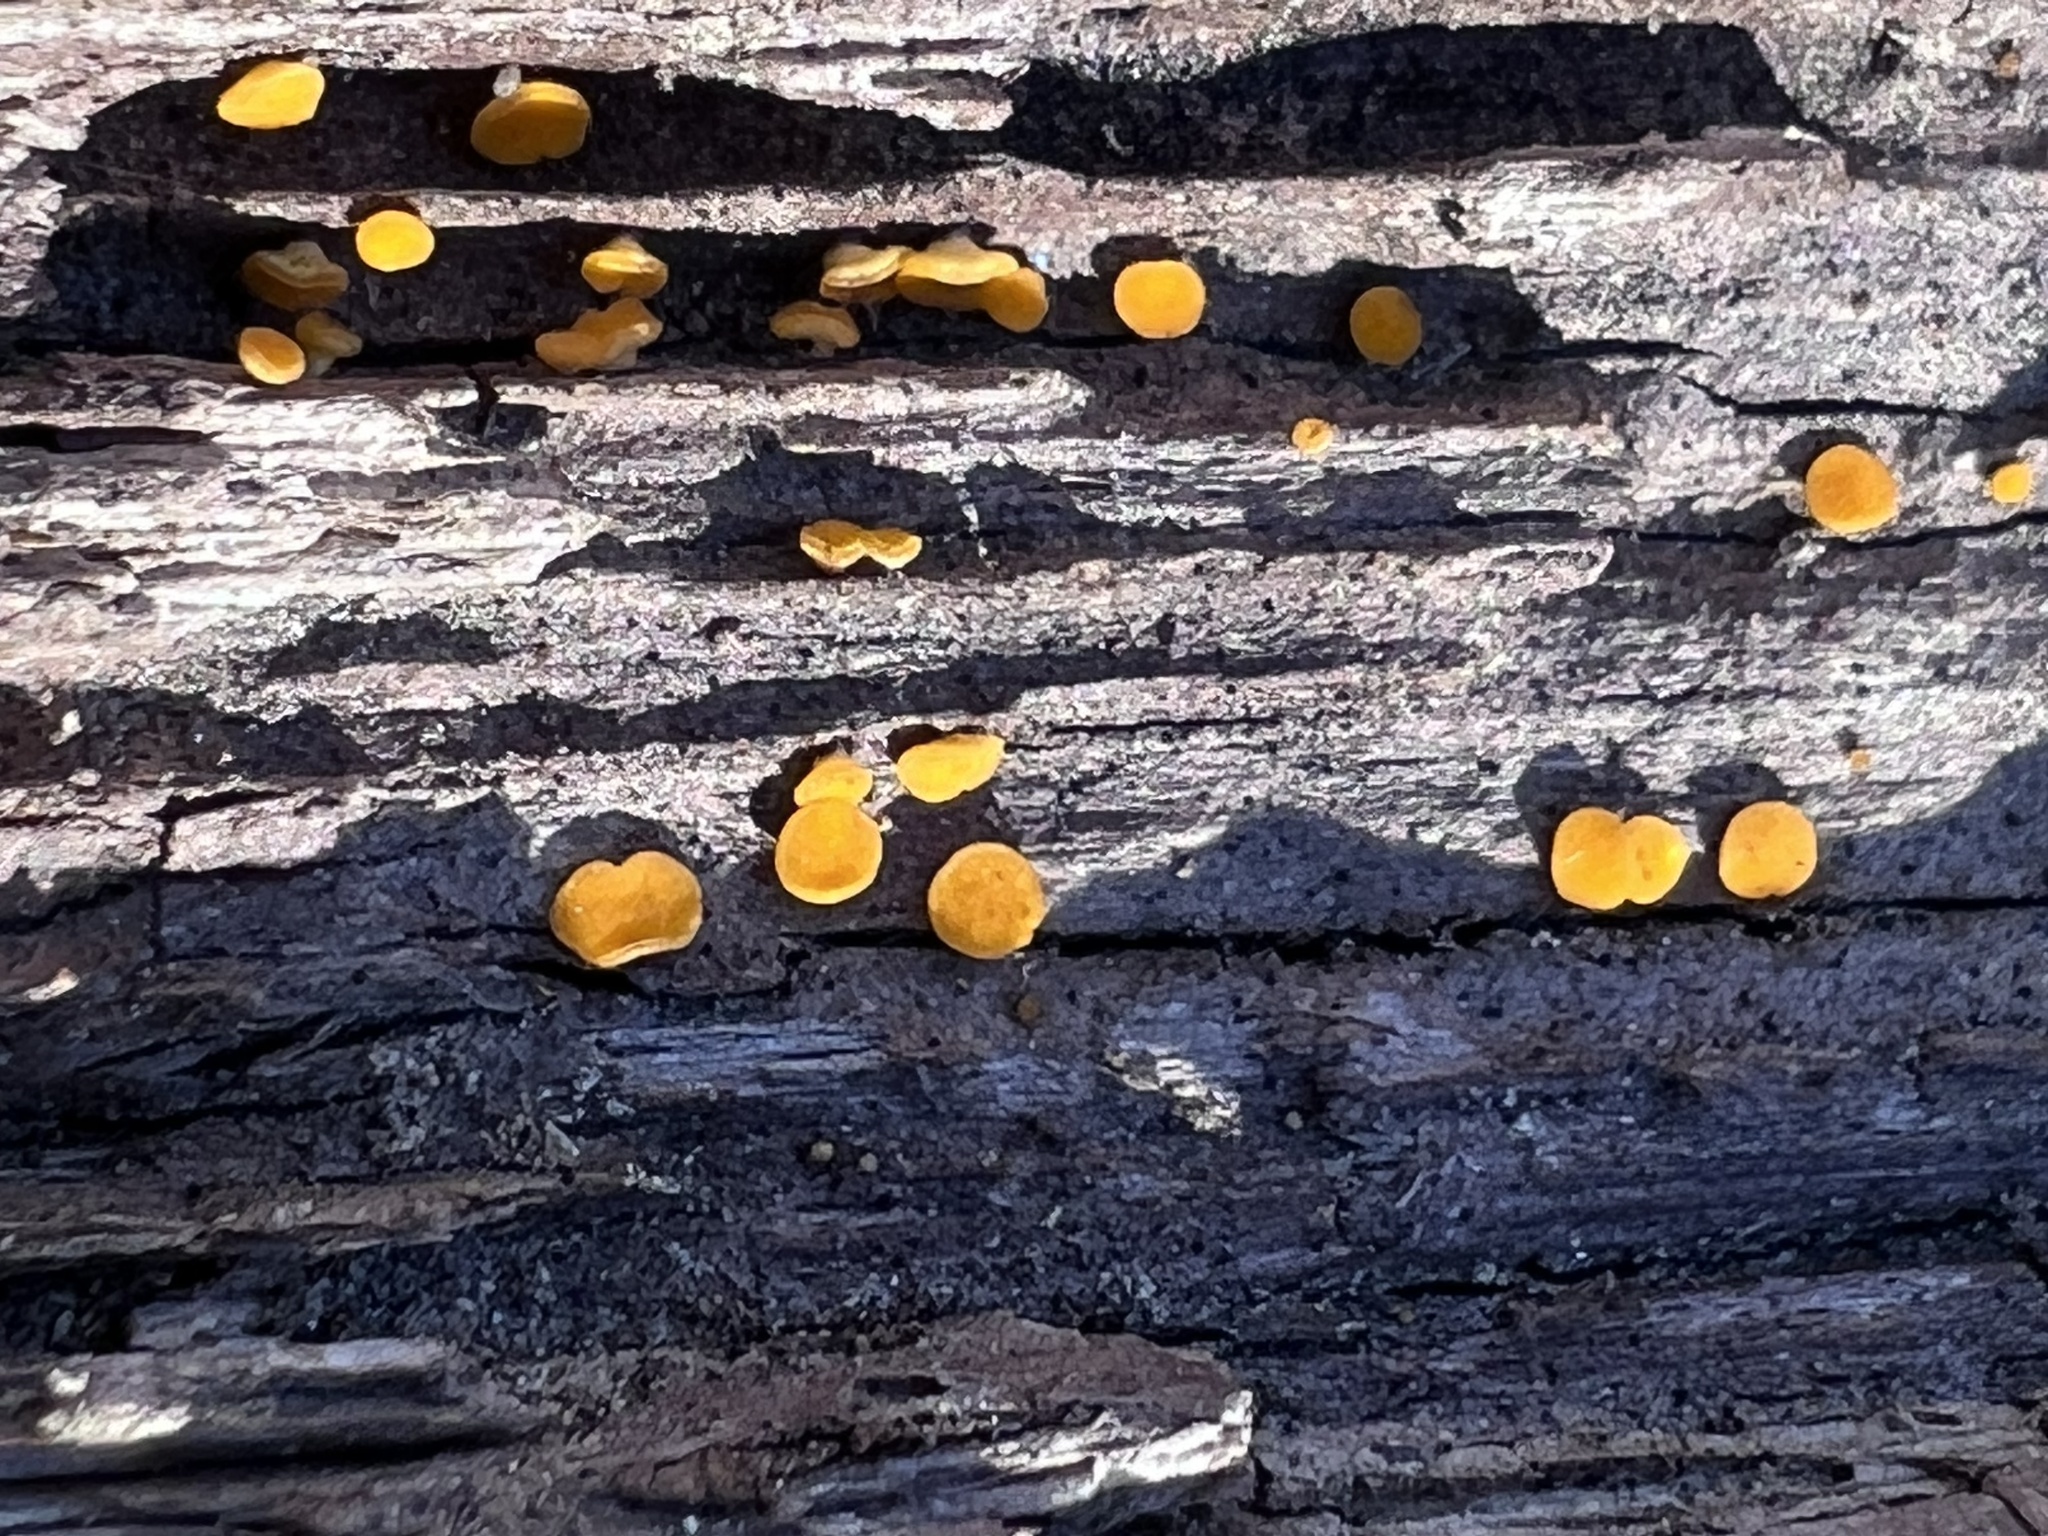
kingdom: Fungi
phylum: Ascomycota
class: Leotiomycetes
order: Helotiales
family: Pezizellaceae
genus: Calycina
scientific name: Calycina citrina
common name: Yellow fairy cups
